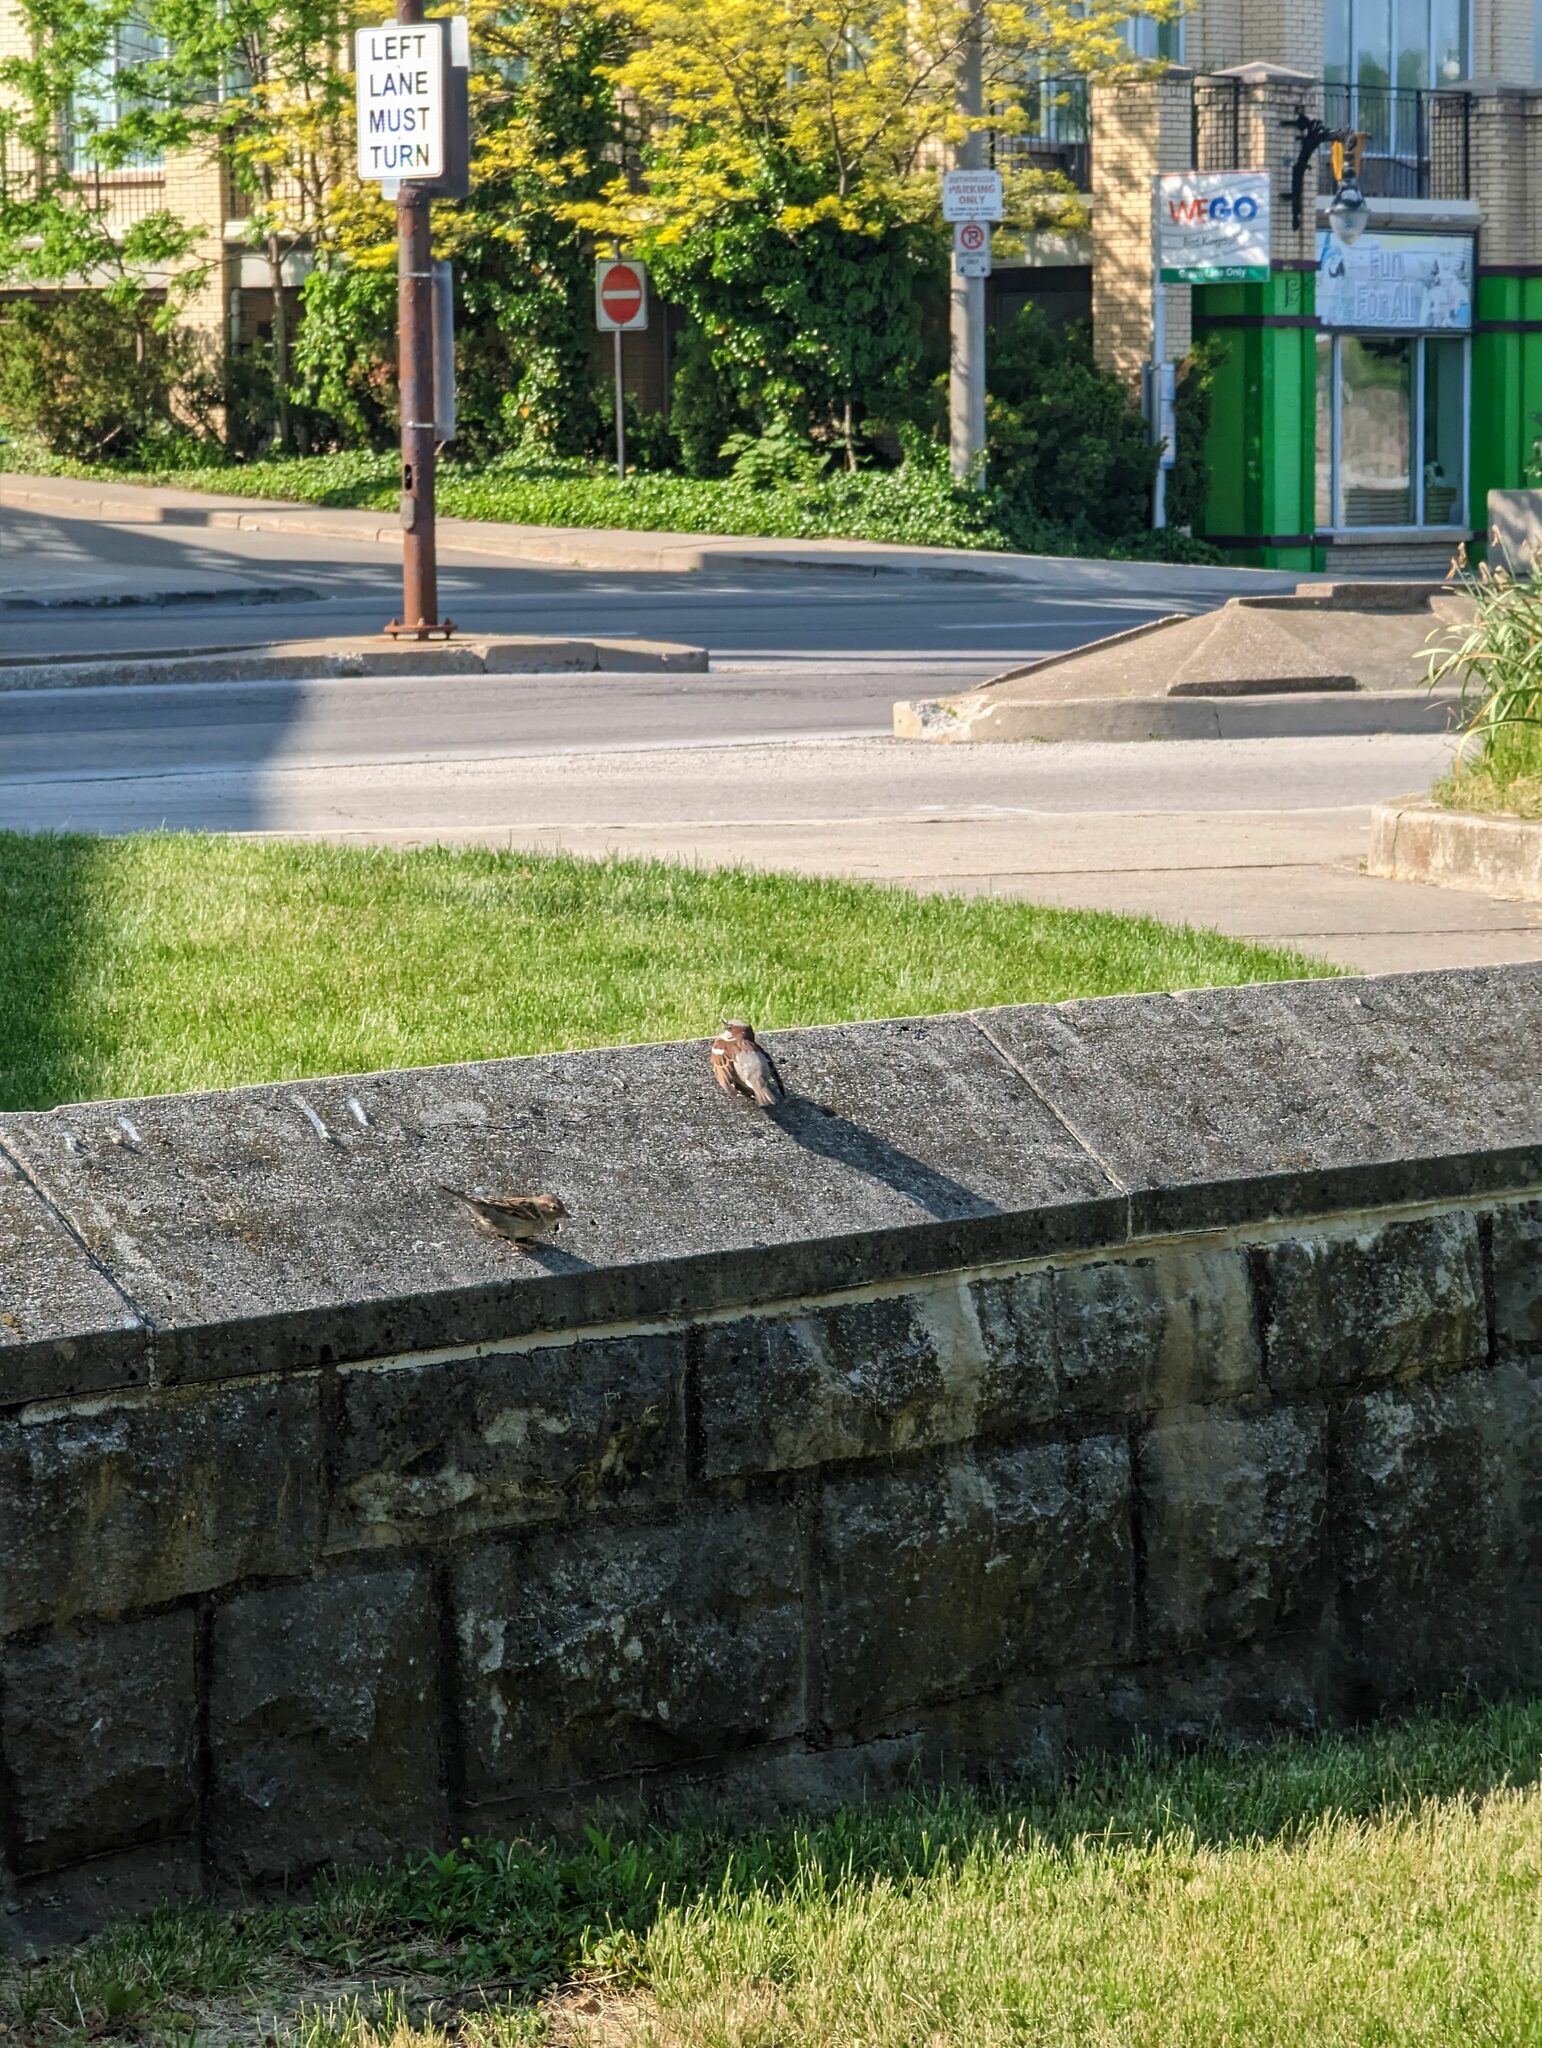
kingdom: Animalia
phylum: Chordata
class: Aves
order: Passeriformes
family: Passeridae
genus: Passer
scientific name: Passer domesticus
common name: House sparrow
